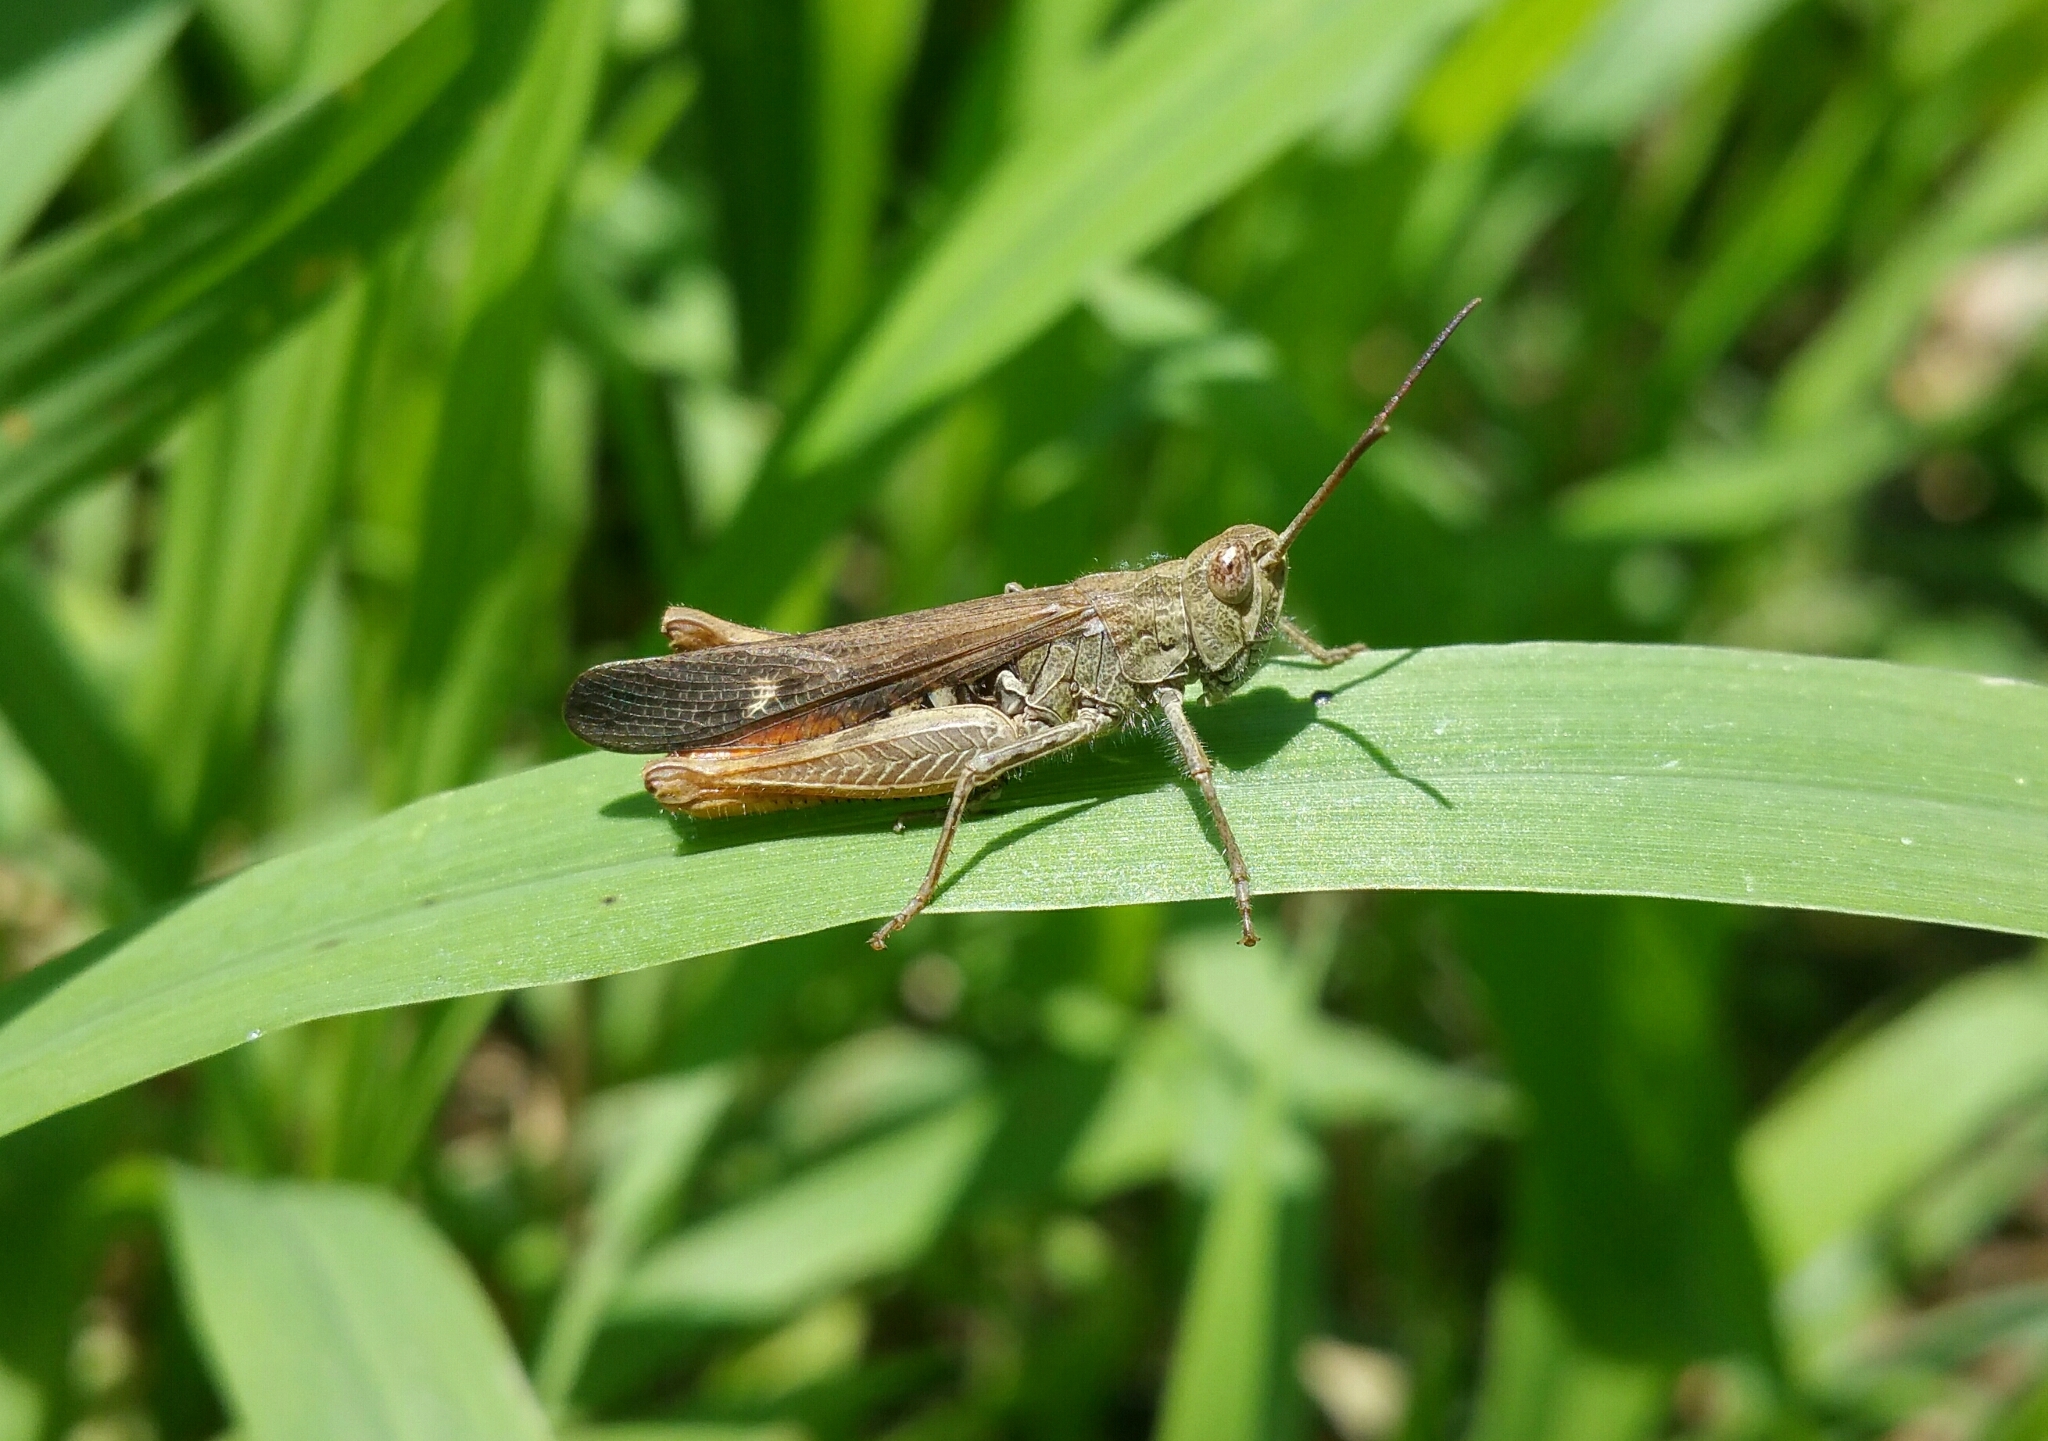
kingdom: Animalia
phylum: Arthropoda
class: Insecta
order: Orthoptera
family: Acrididae
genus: Chorthippus
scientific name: Chorthippus brunneus
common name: Field grasshopper
